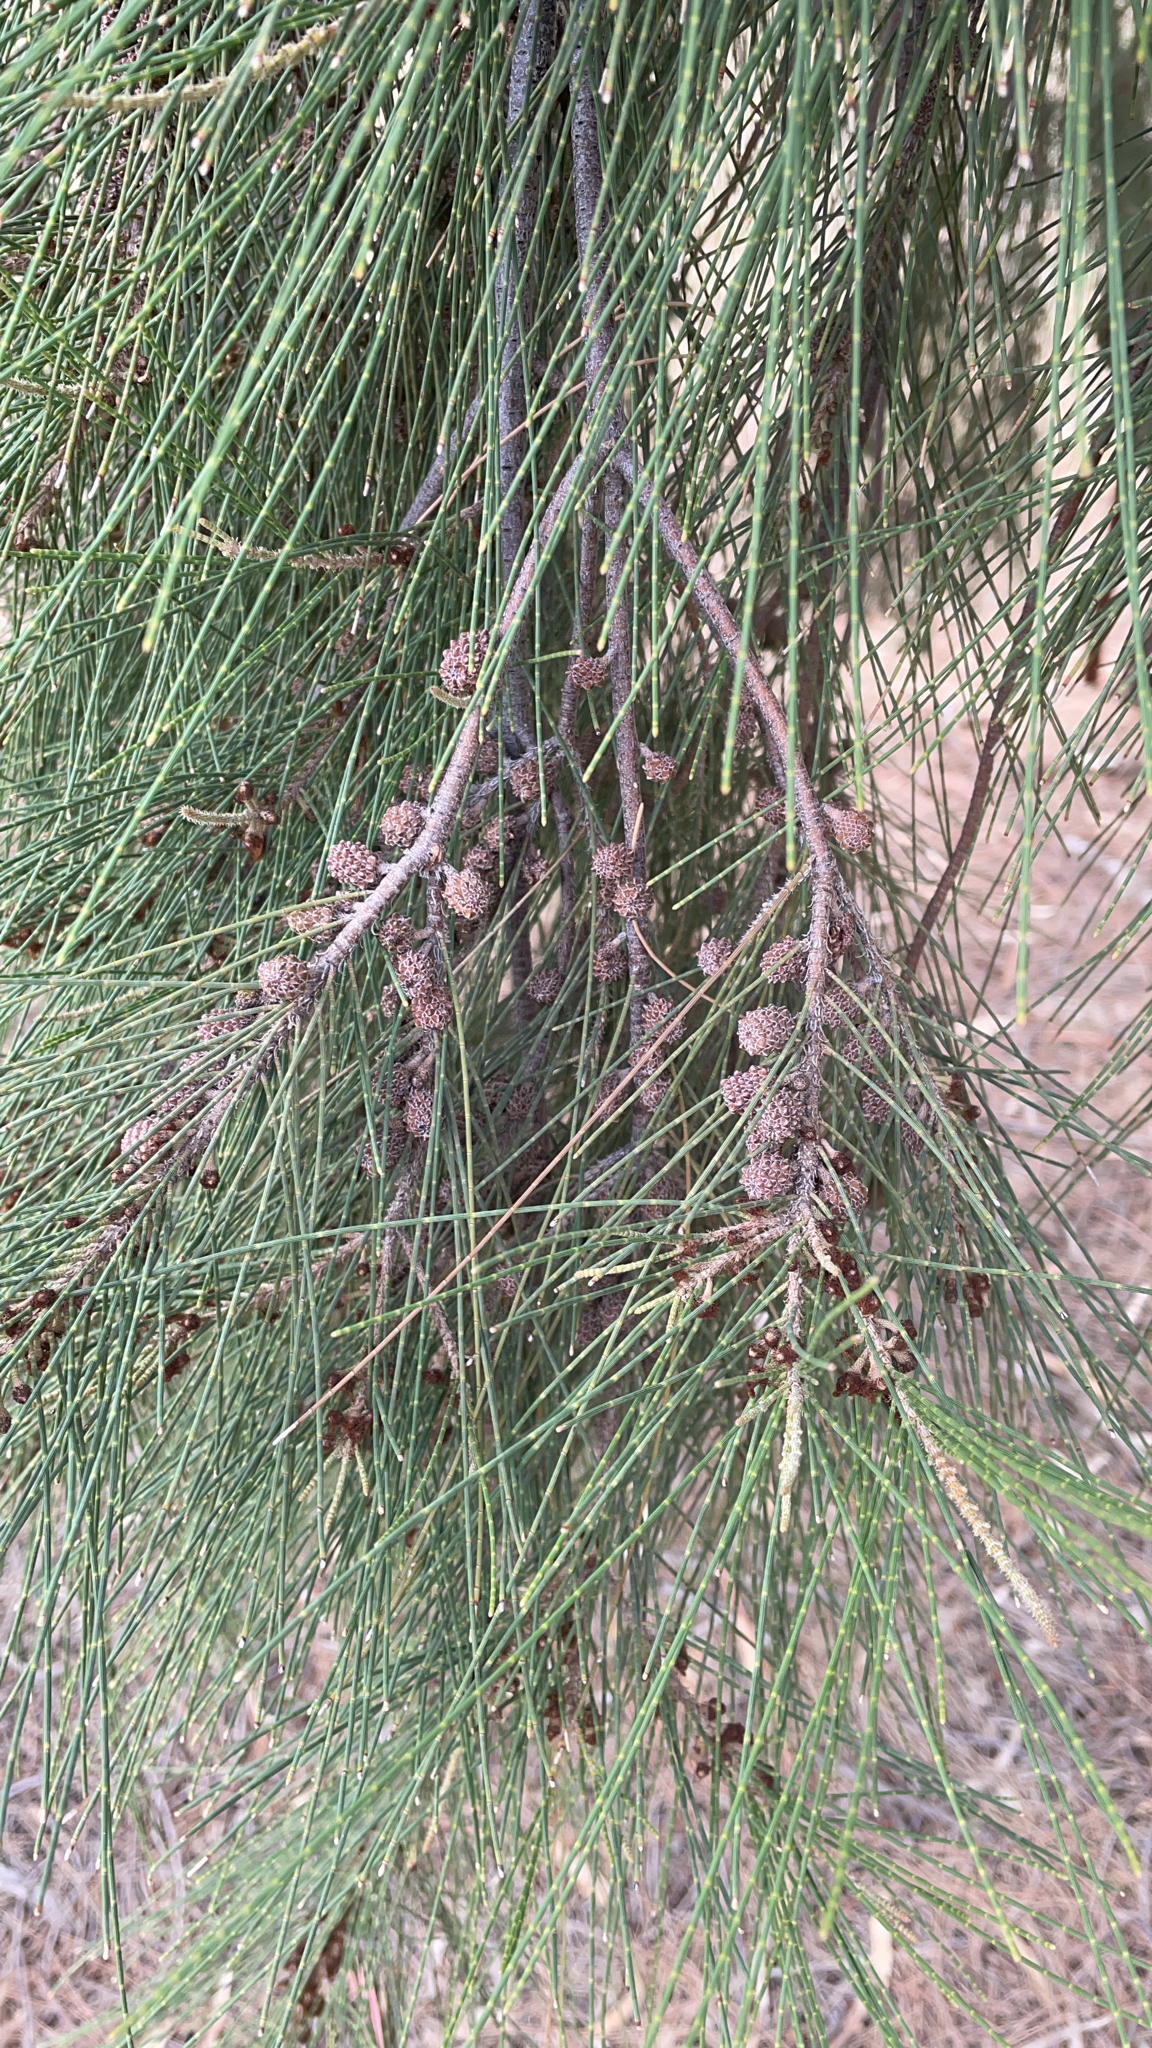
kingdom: Plantae
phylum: Tracheophyta
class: Magnoliopsida
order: Fagales
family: Casuarinaceae
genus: Casuarina
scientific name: Casuarina cunninghamiana
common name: River sheoak
